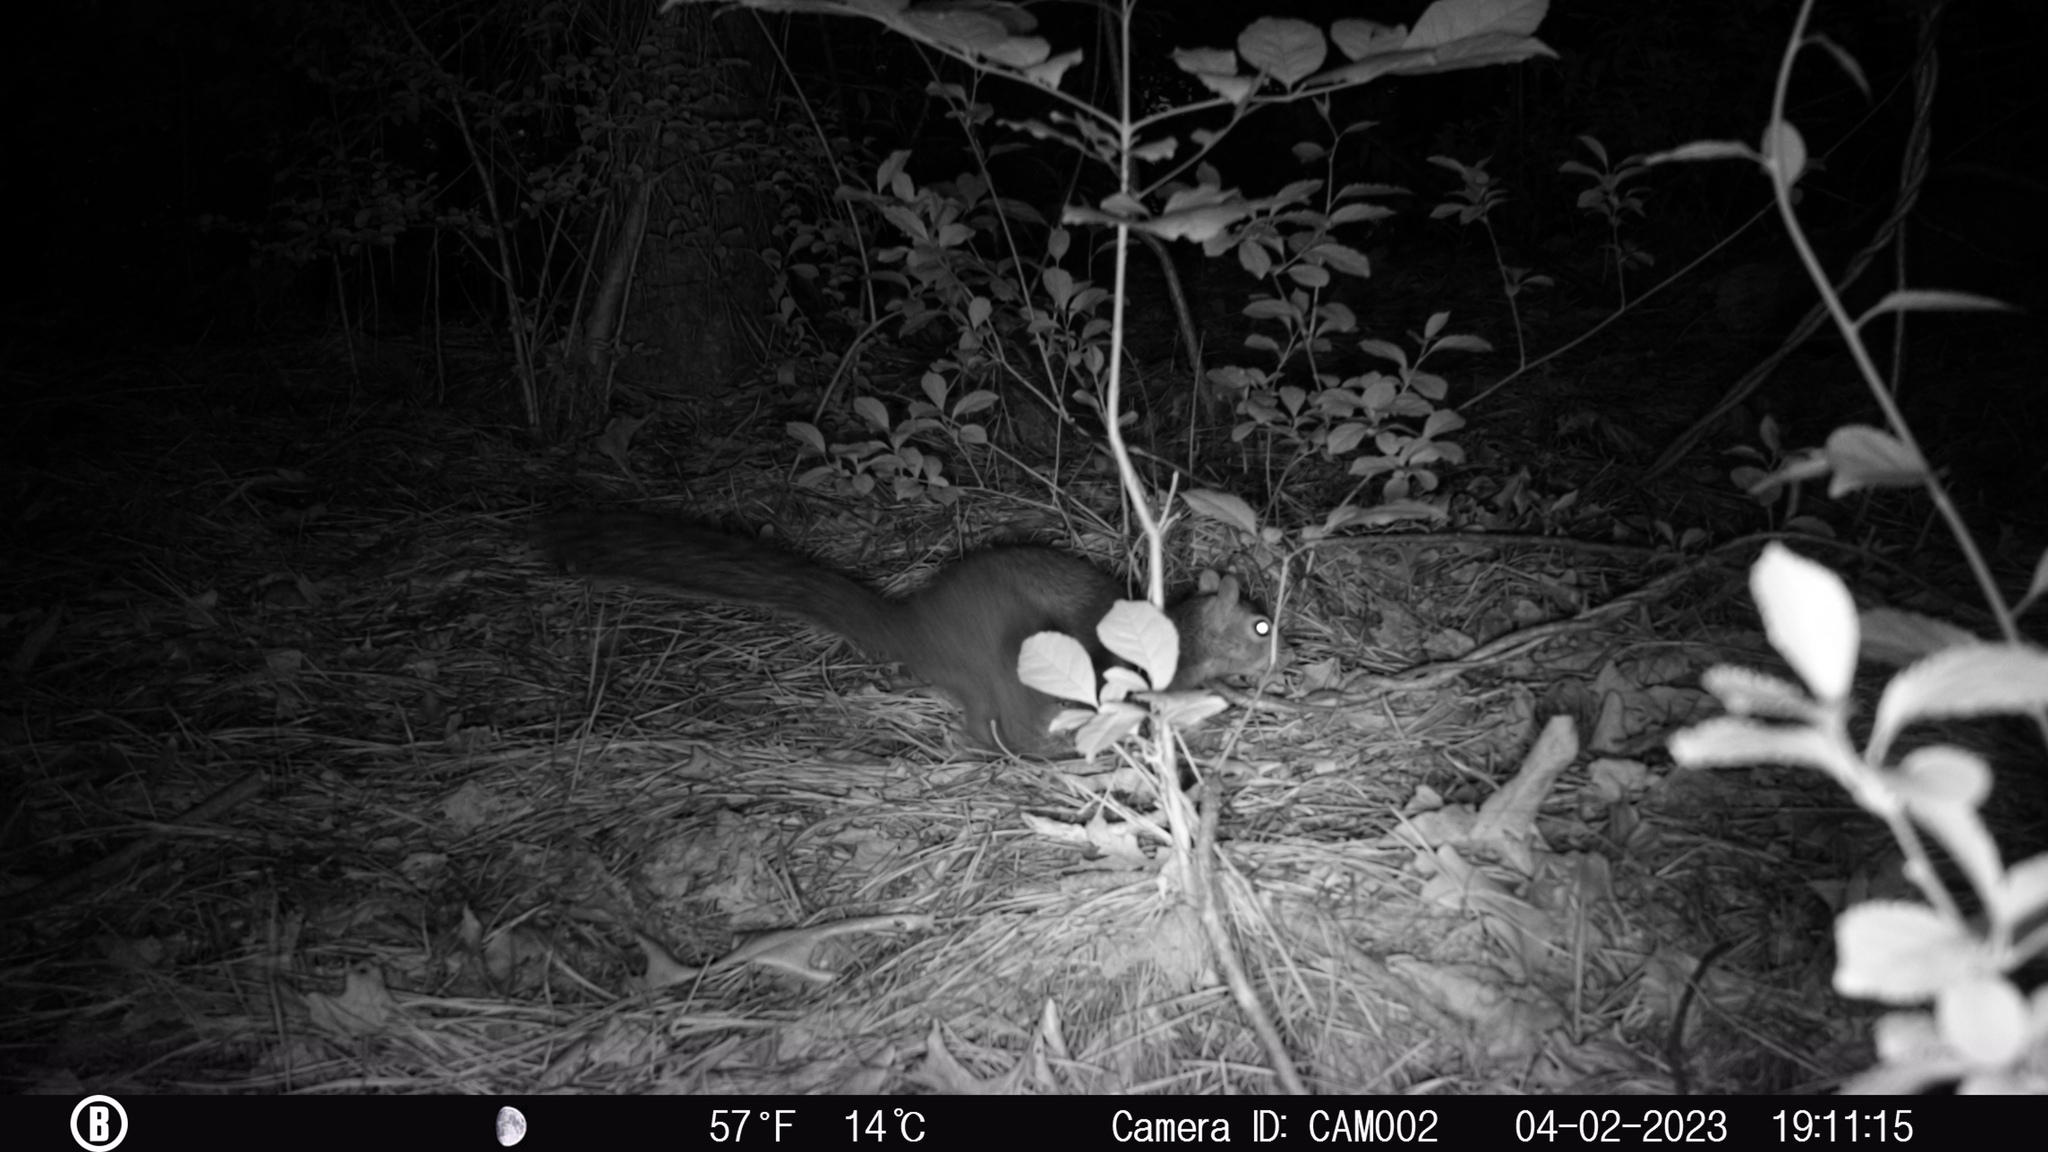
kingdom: Animalia
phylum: Chordata
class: Mammalia
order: Rodentia
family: Sciuridae
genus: Sciurus
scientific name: Sciurus carolinensis
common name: Eastern gray squirrel
